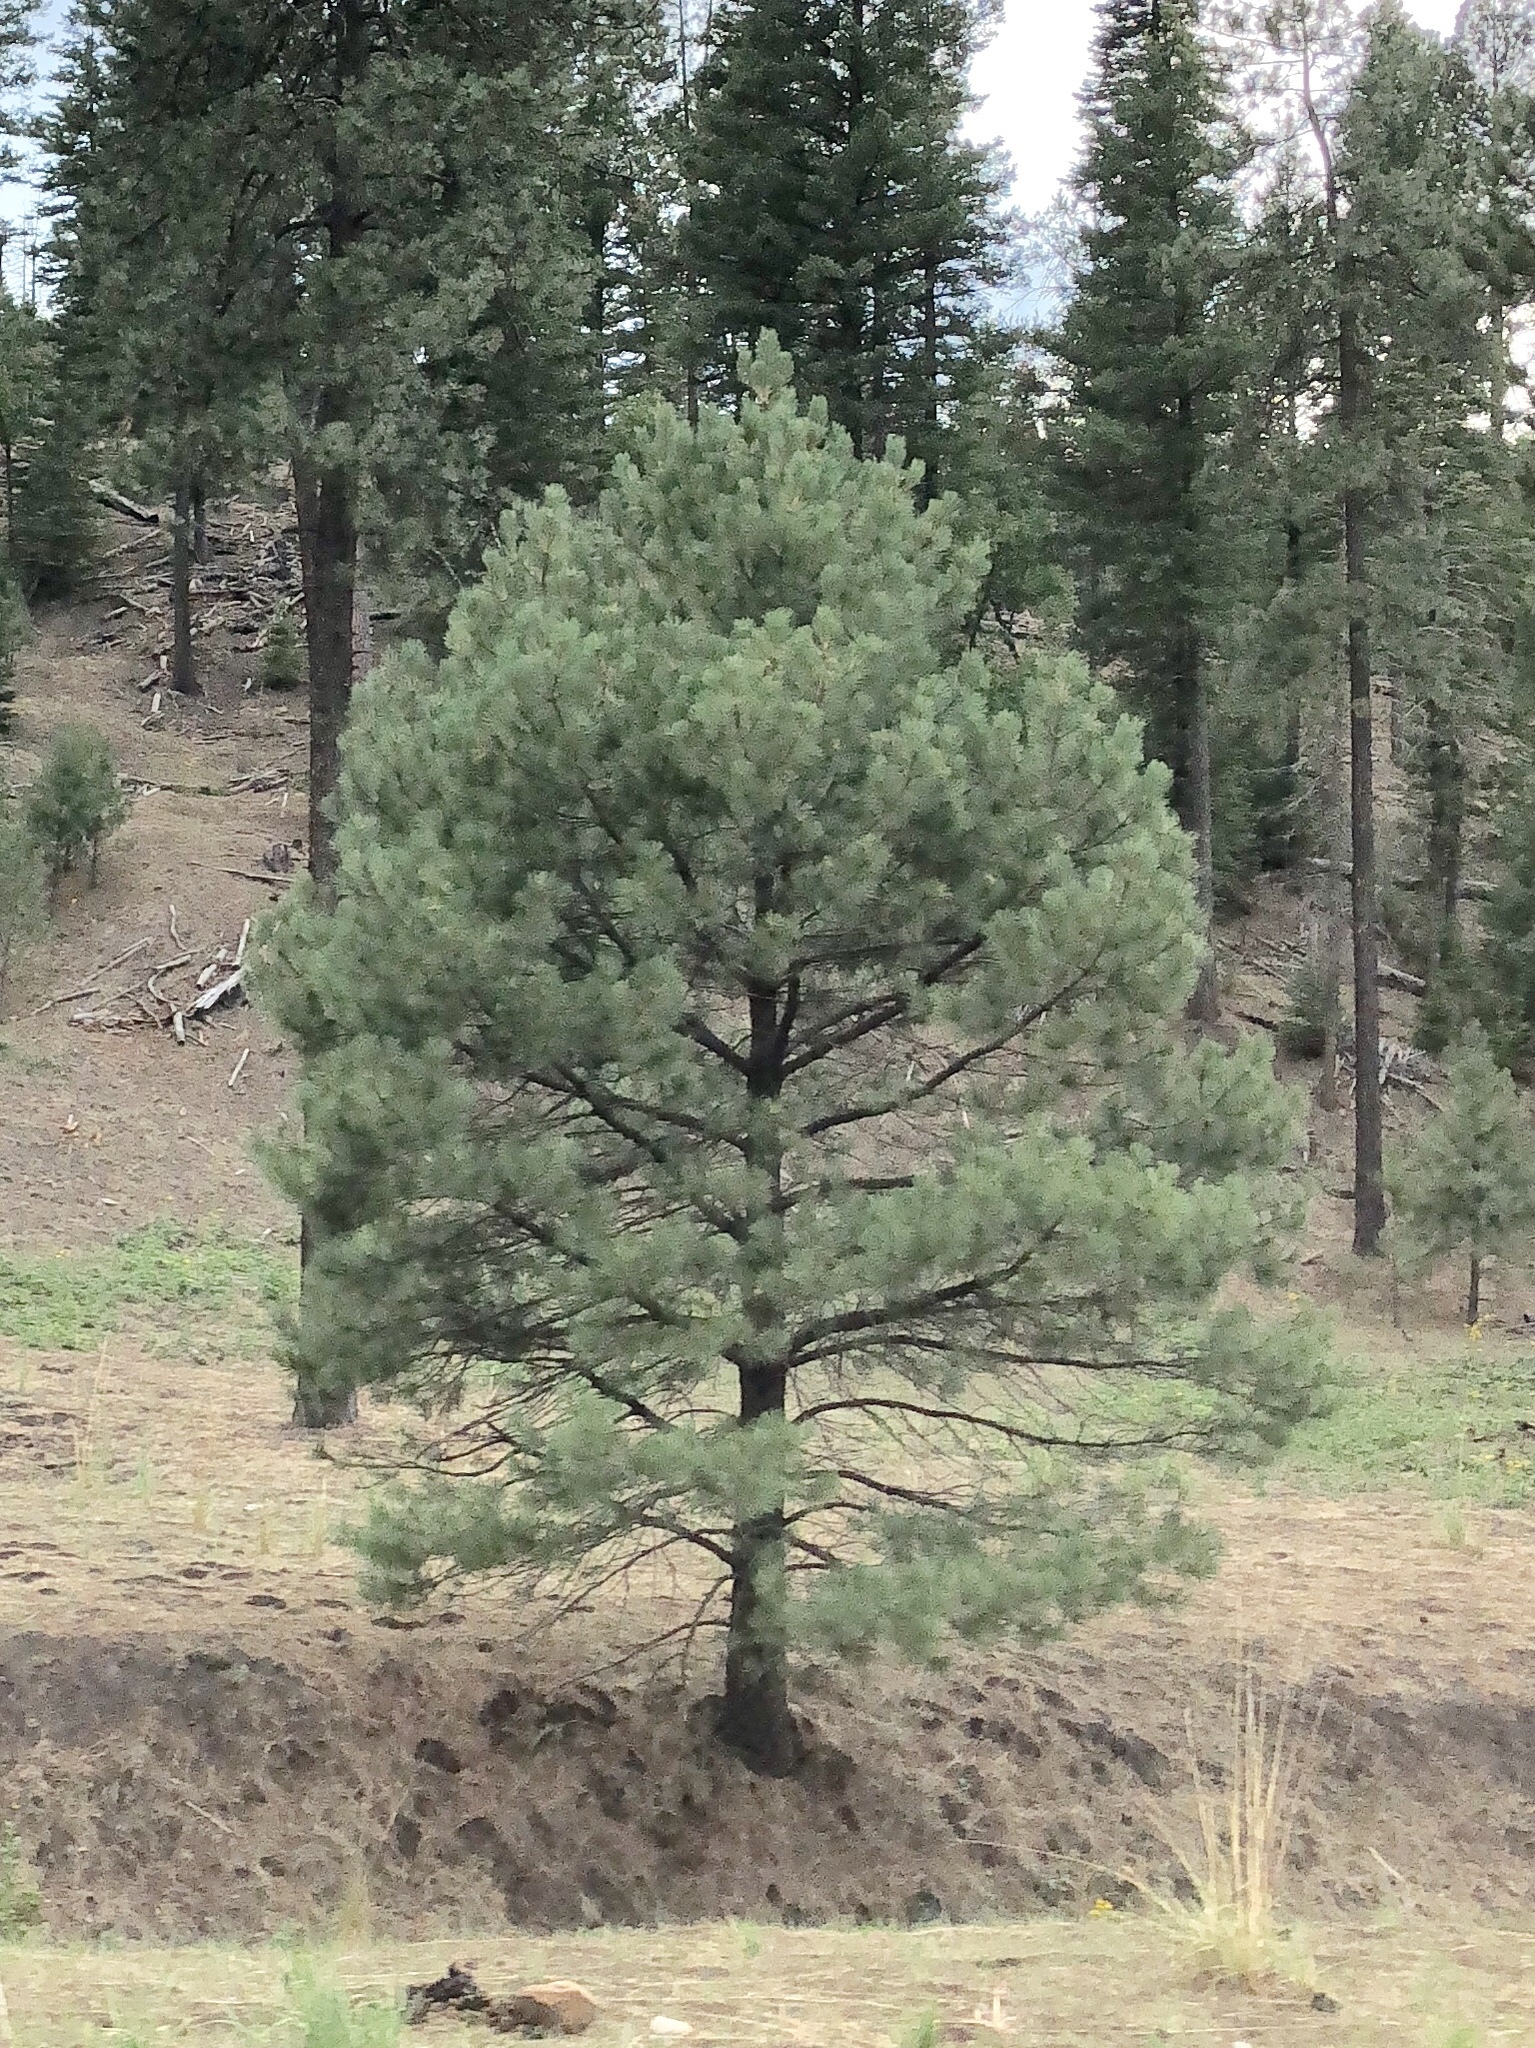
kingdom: Plantae
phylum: Tracheophyta
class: Pinopsida
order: Pinales
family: Pinaceae
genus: Pinus
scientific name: Pinus ponderosa
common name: Western yellow-pine
